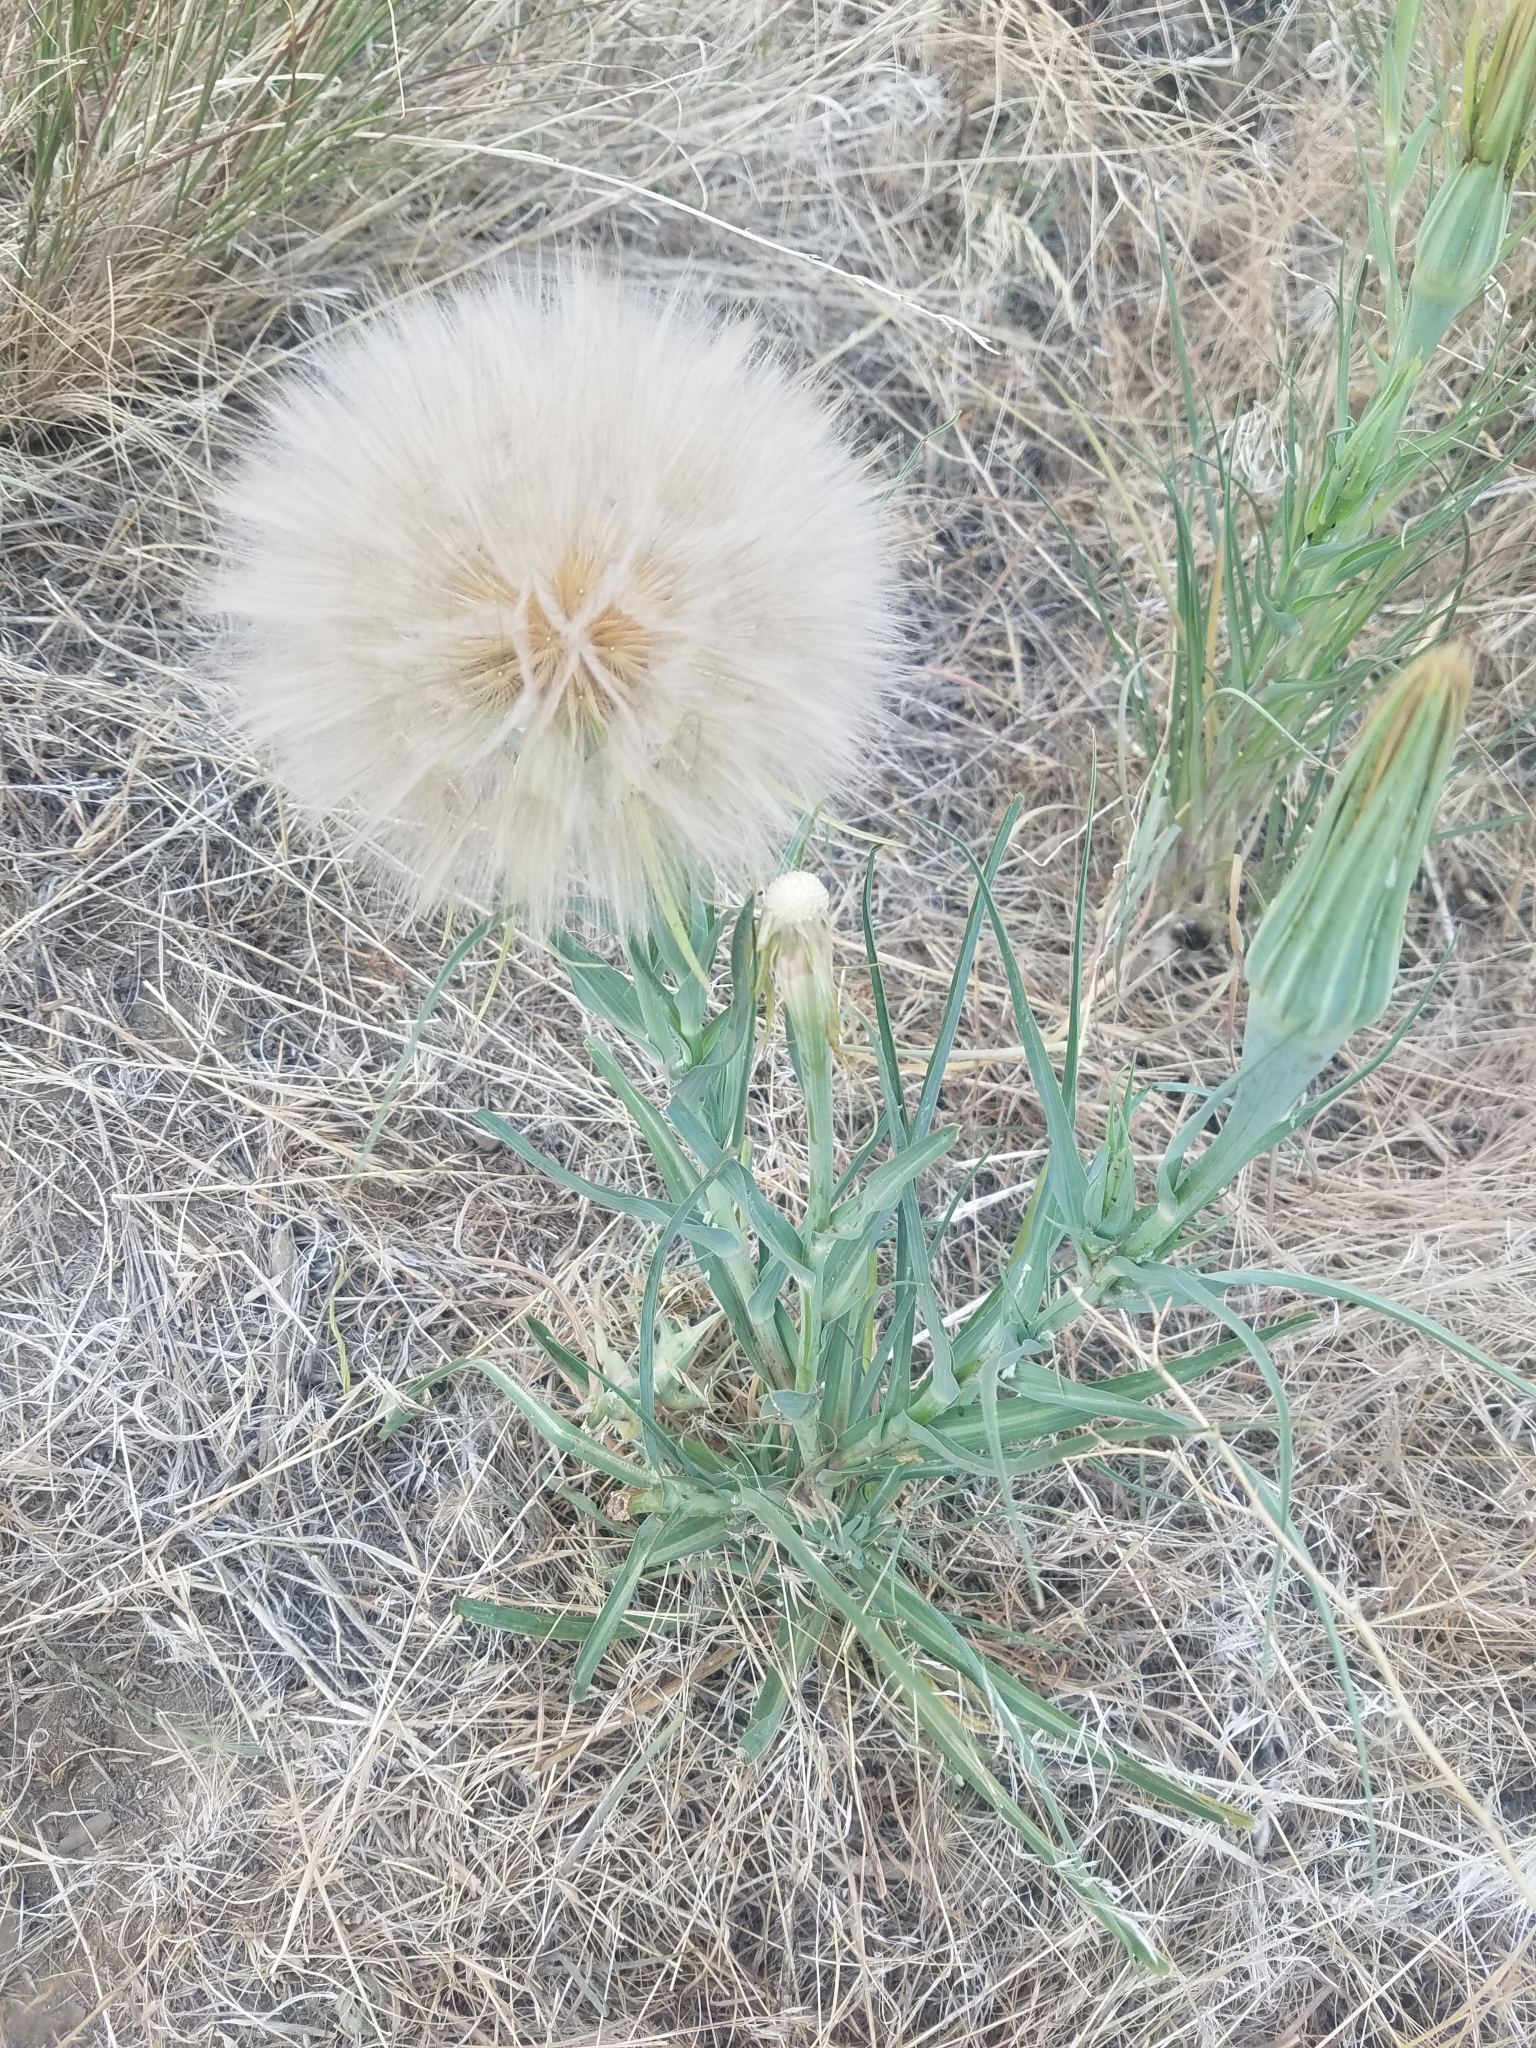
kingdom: Plantae
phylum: Tracheophyta
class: Magnoliopsida
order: Asterales
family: Asteraceae
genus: Tragopogon
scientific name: Tragopogon dubius
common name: Yellow salsify
